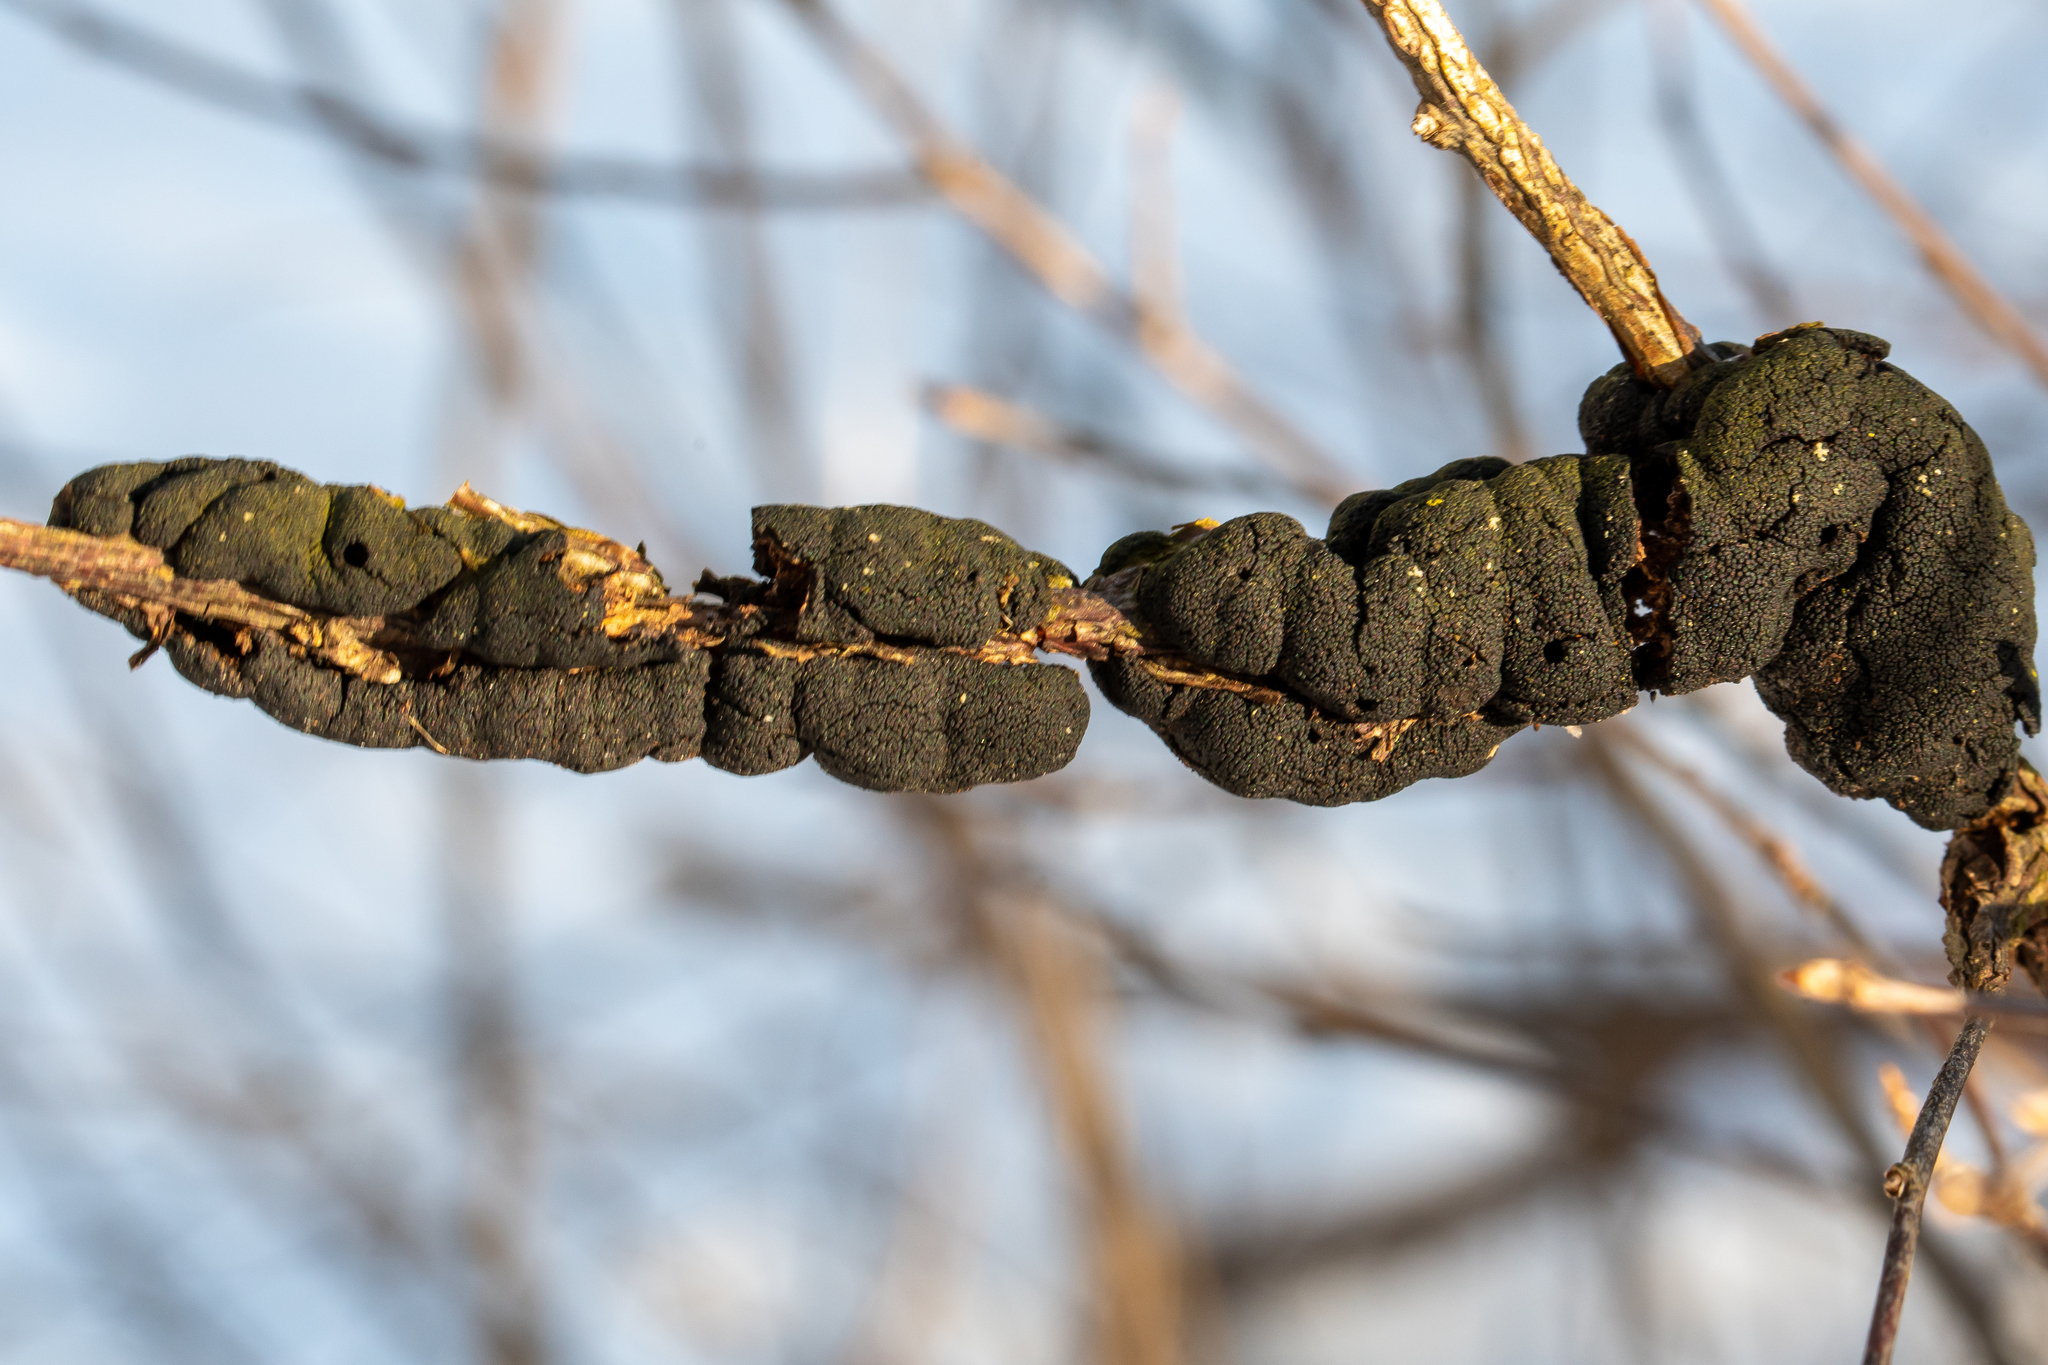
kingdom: Fungi
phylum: Ascomycota
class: Dothideomycetes
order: Venturiales
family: Venturiaceae
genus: Apiosporina
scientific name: Apiosporina morbosa
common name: Black knot
